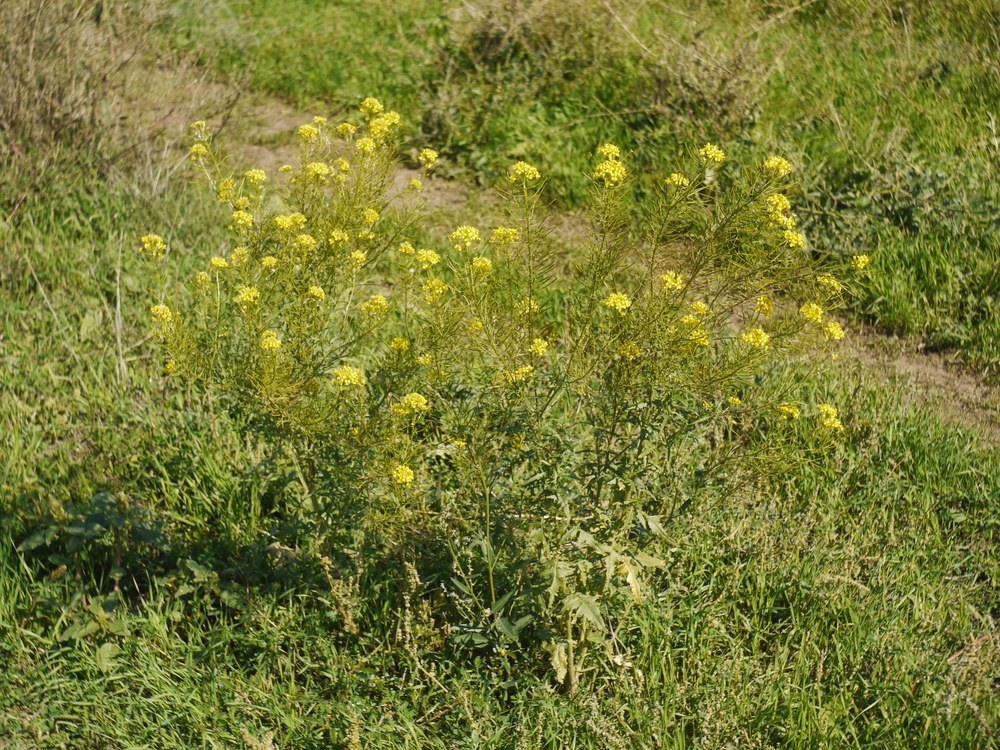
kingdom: Plantae
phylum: Tracheophyta
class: Magnoliopsida
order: Brassicales
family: Brassicaceae
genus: Brassica
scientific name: Brassica elongata
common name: Long-stalked rape
